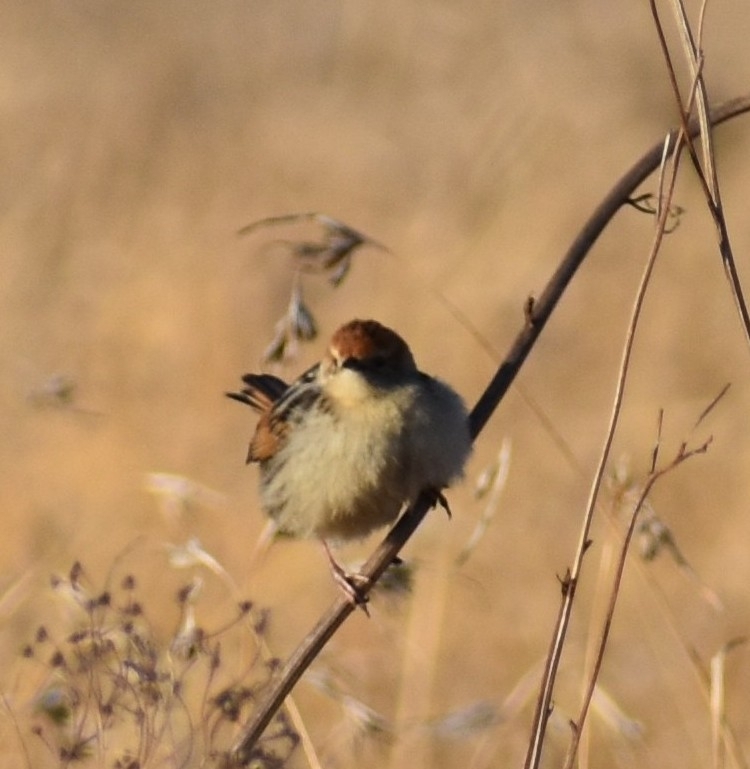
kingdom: Animalia
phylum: Chordata
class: Aves
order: Passeriformes
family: Cisticolidae
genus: Cisticola
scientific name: Cisticola tinniens
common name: Levaillant's cisticola
